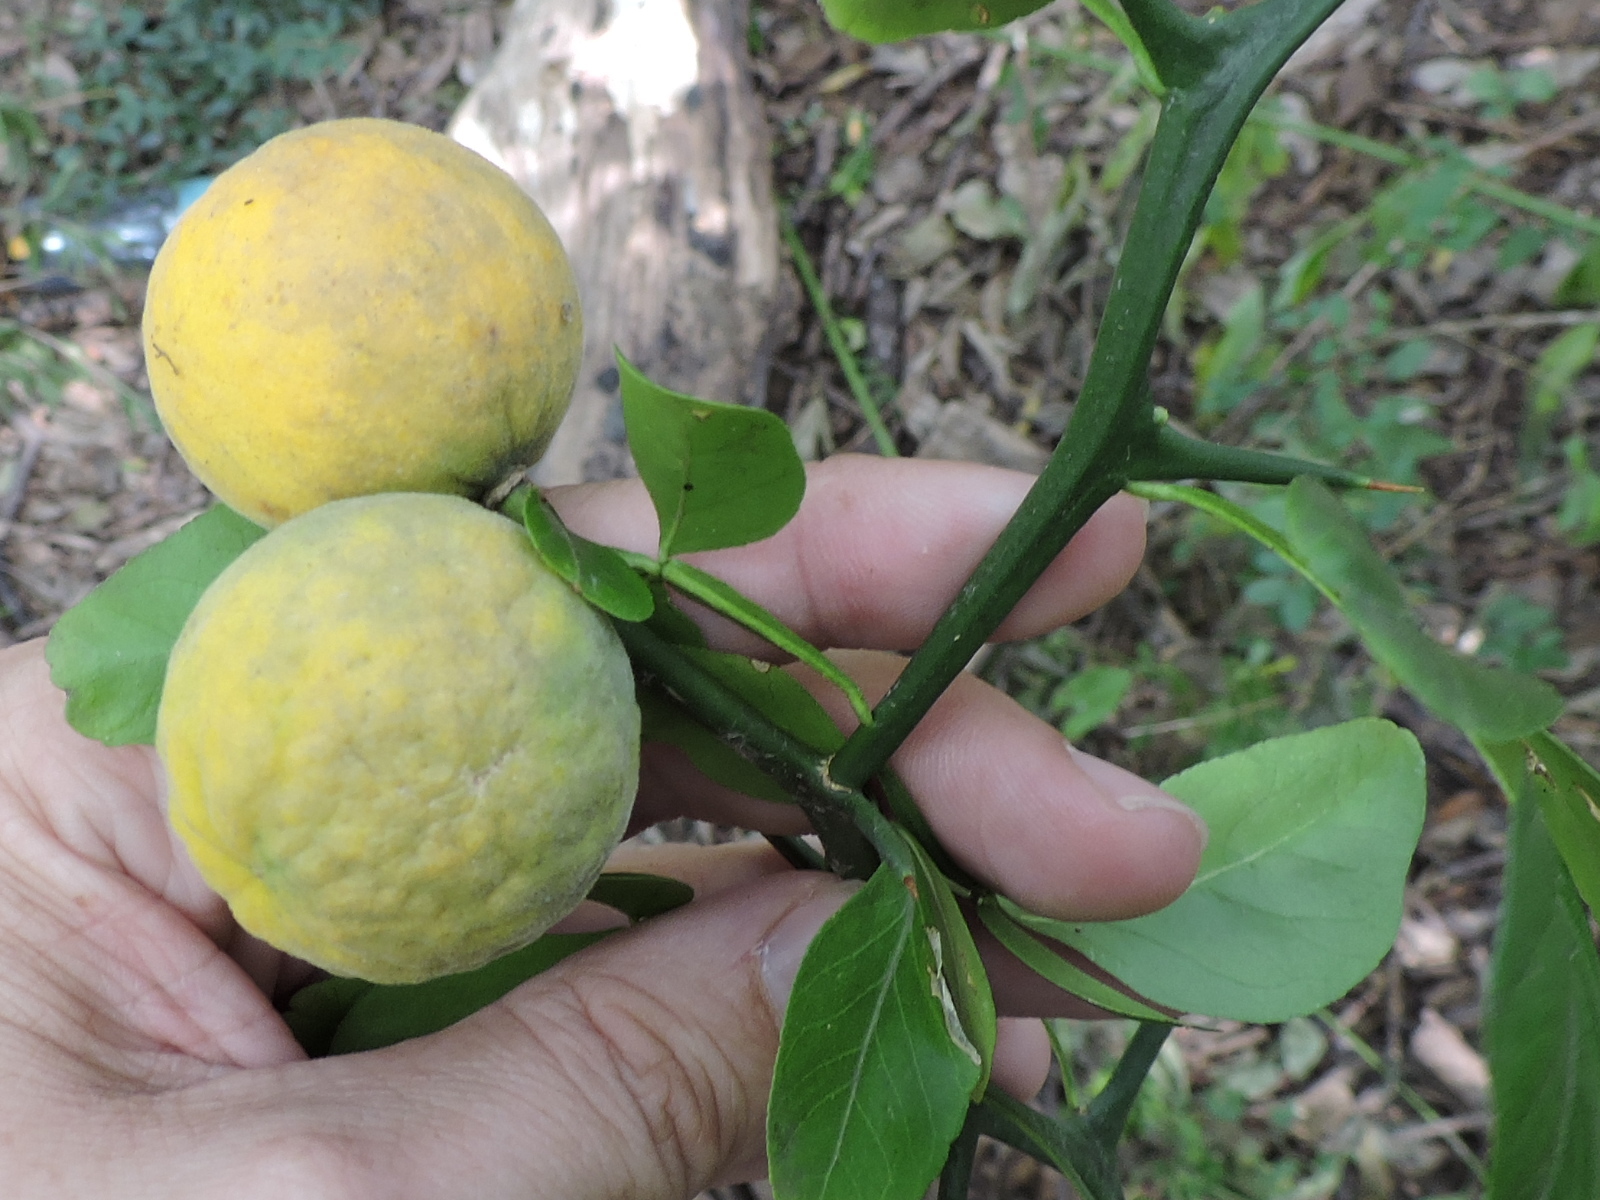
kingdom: Plantae
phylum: Tracheophyta
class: Magnoliopsida
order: Sapindales
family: Rutaceae
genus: Citrus
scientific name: Citrus trifoliata
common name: Japanese bitter-orange
